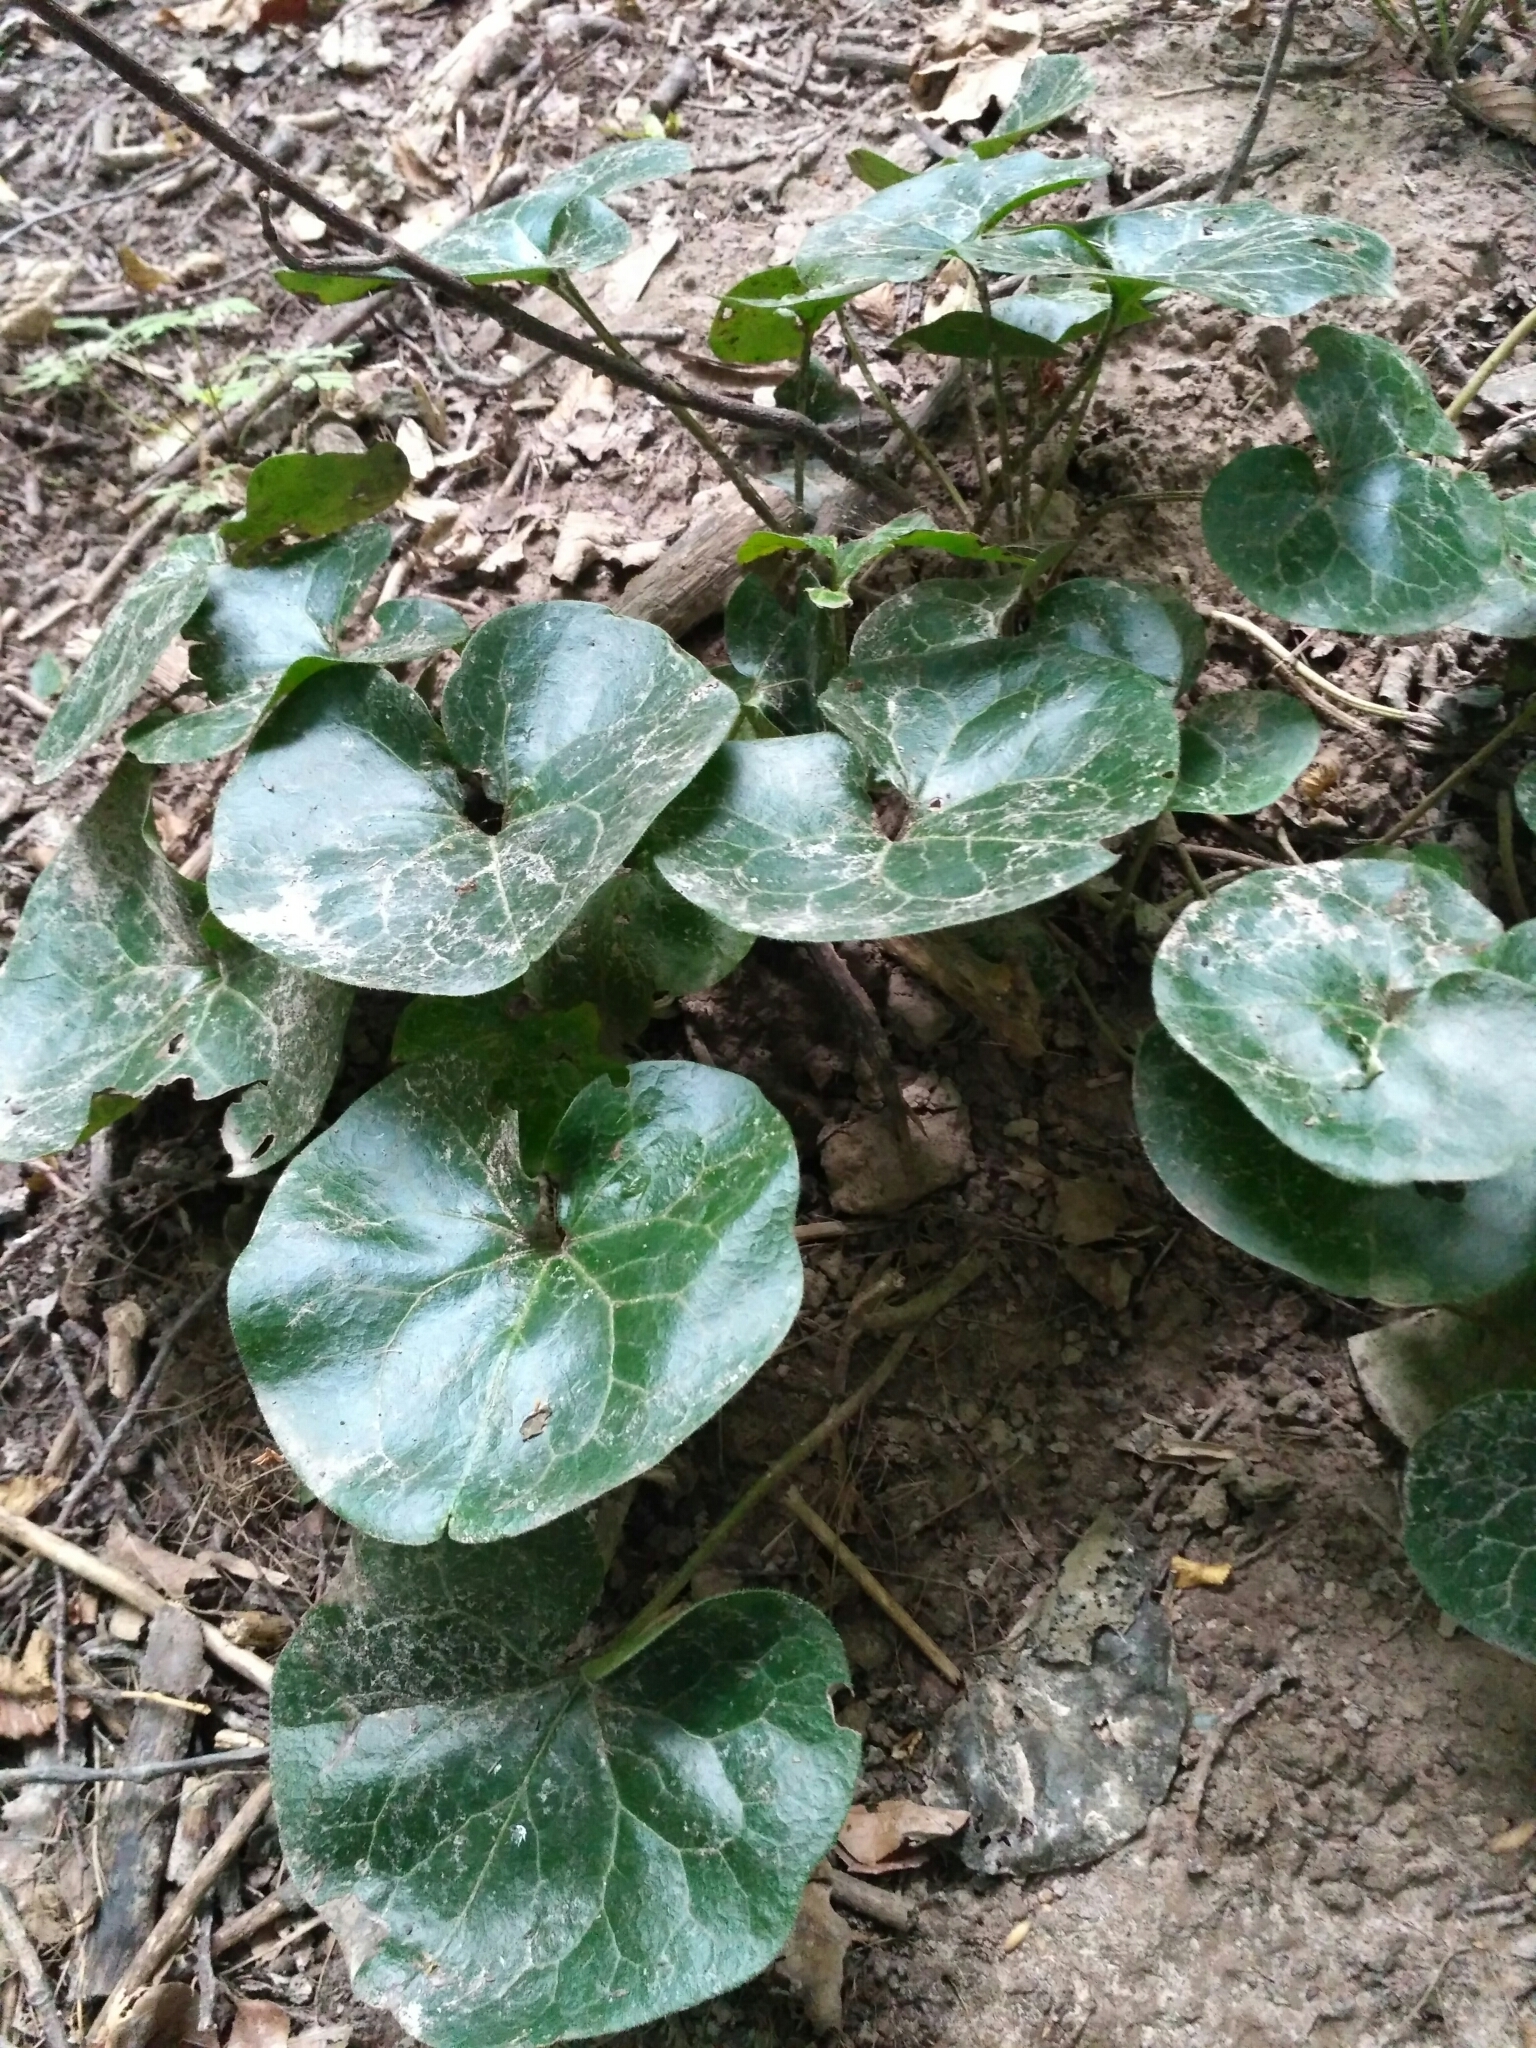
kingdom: Plantae
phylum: Tracheophyta
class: Magnoliopsida
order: Piperales
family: Aristolochiaceae
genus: Asarum
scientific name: Asarum europaeum
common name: Asarabacca
